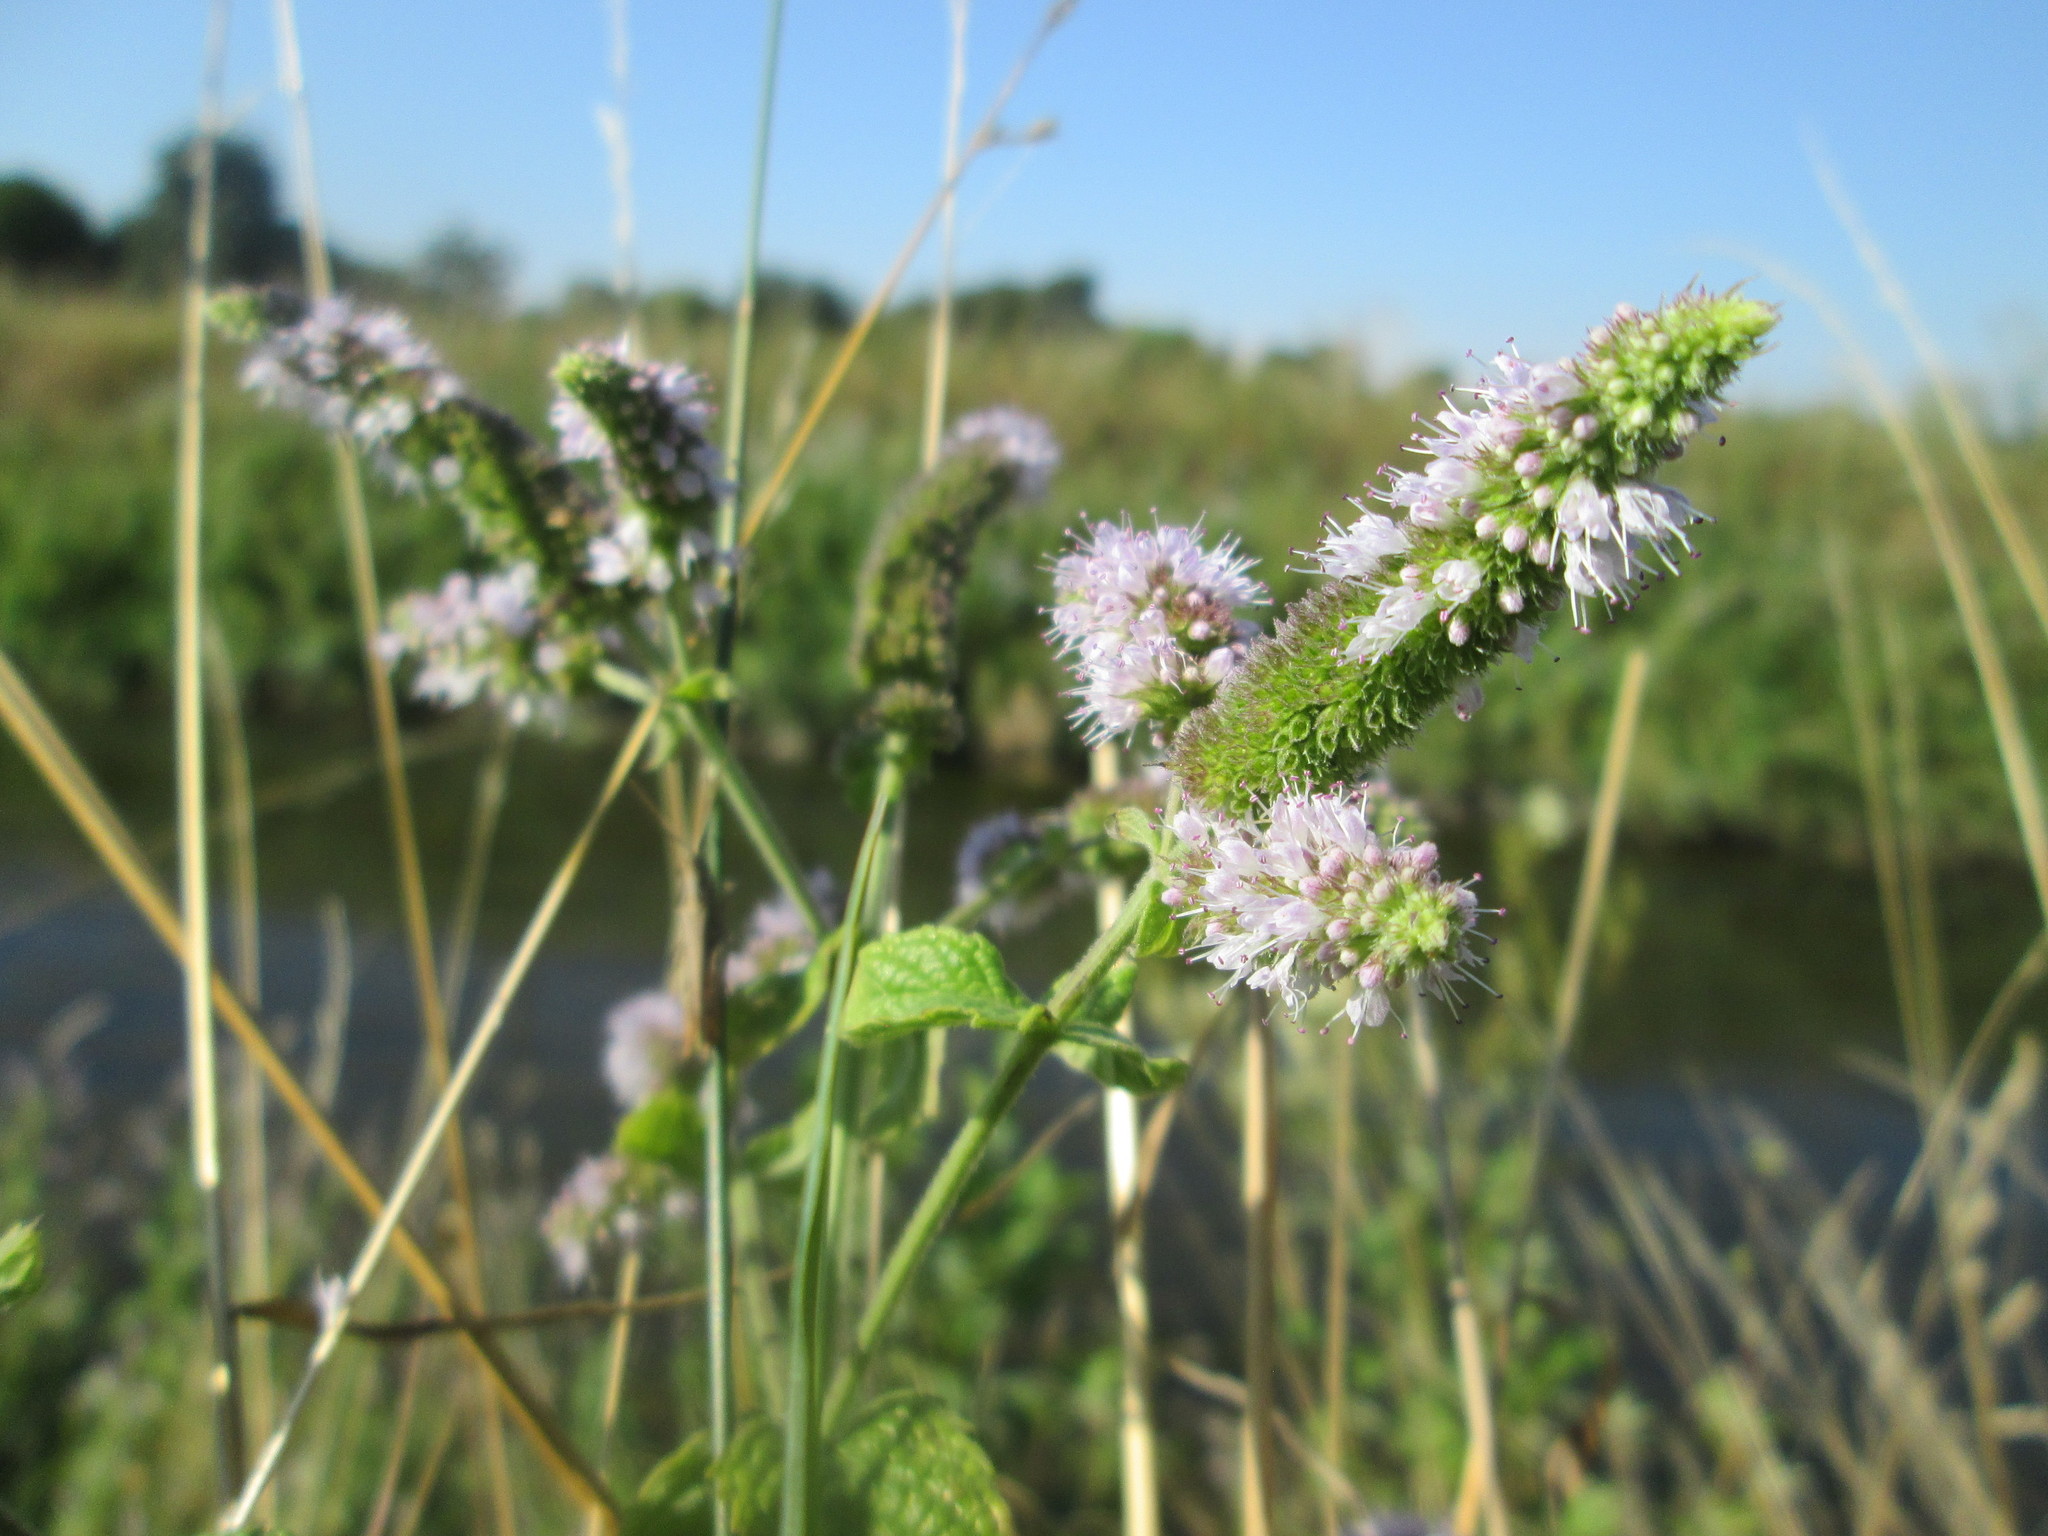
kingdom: Plantae
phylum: Tracheophyta
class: Magnoliopsida
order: Lamiales
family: Lamiaceae
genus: Mentha
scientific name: Mentha longifolia
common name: Horse mint
